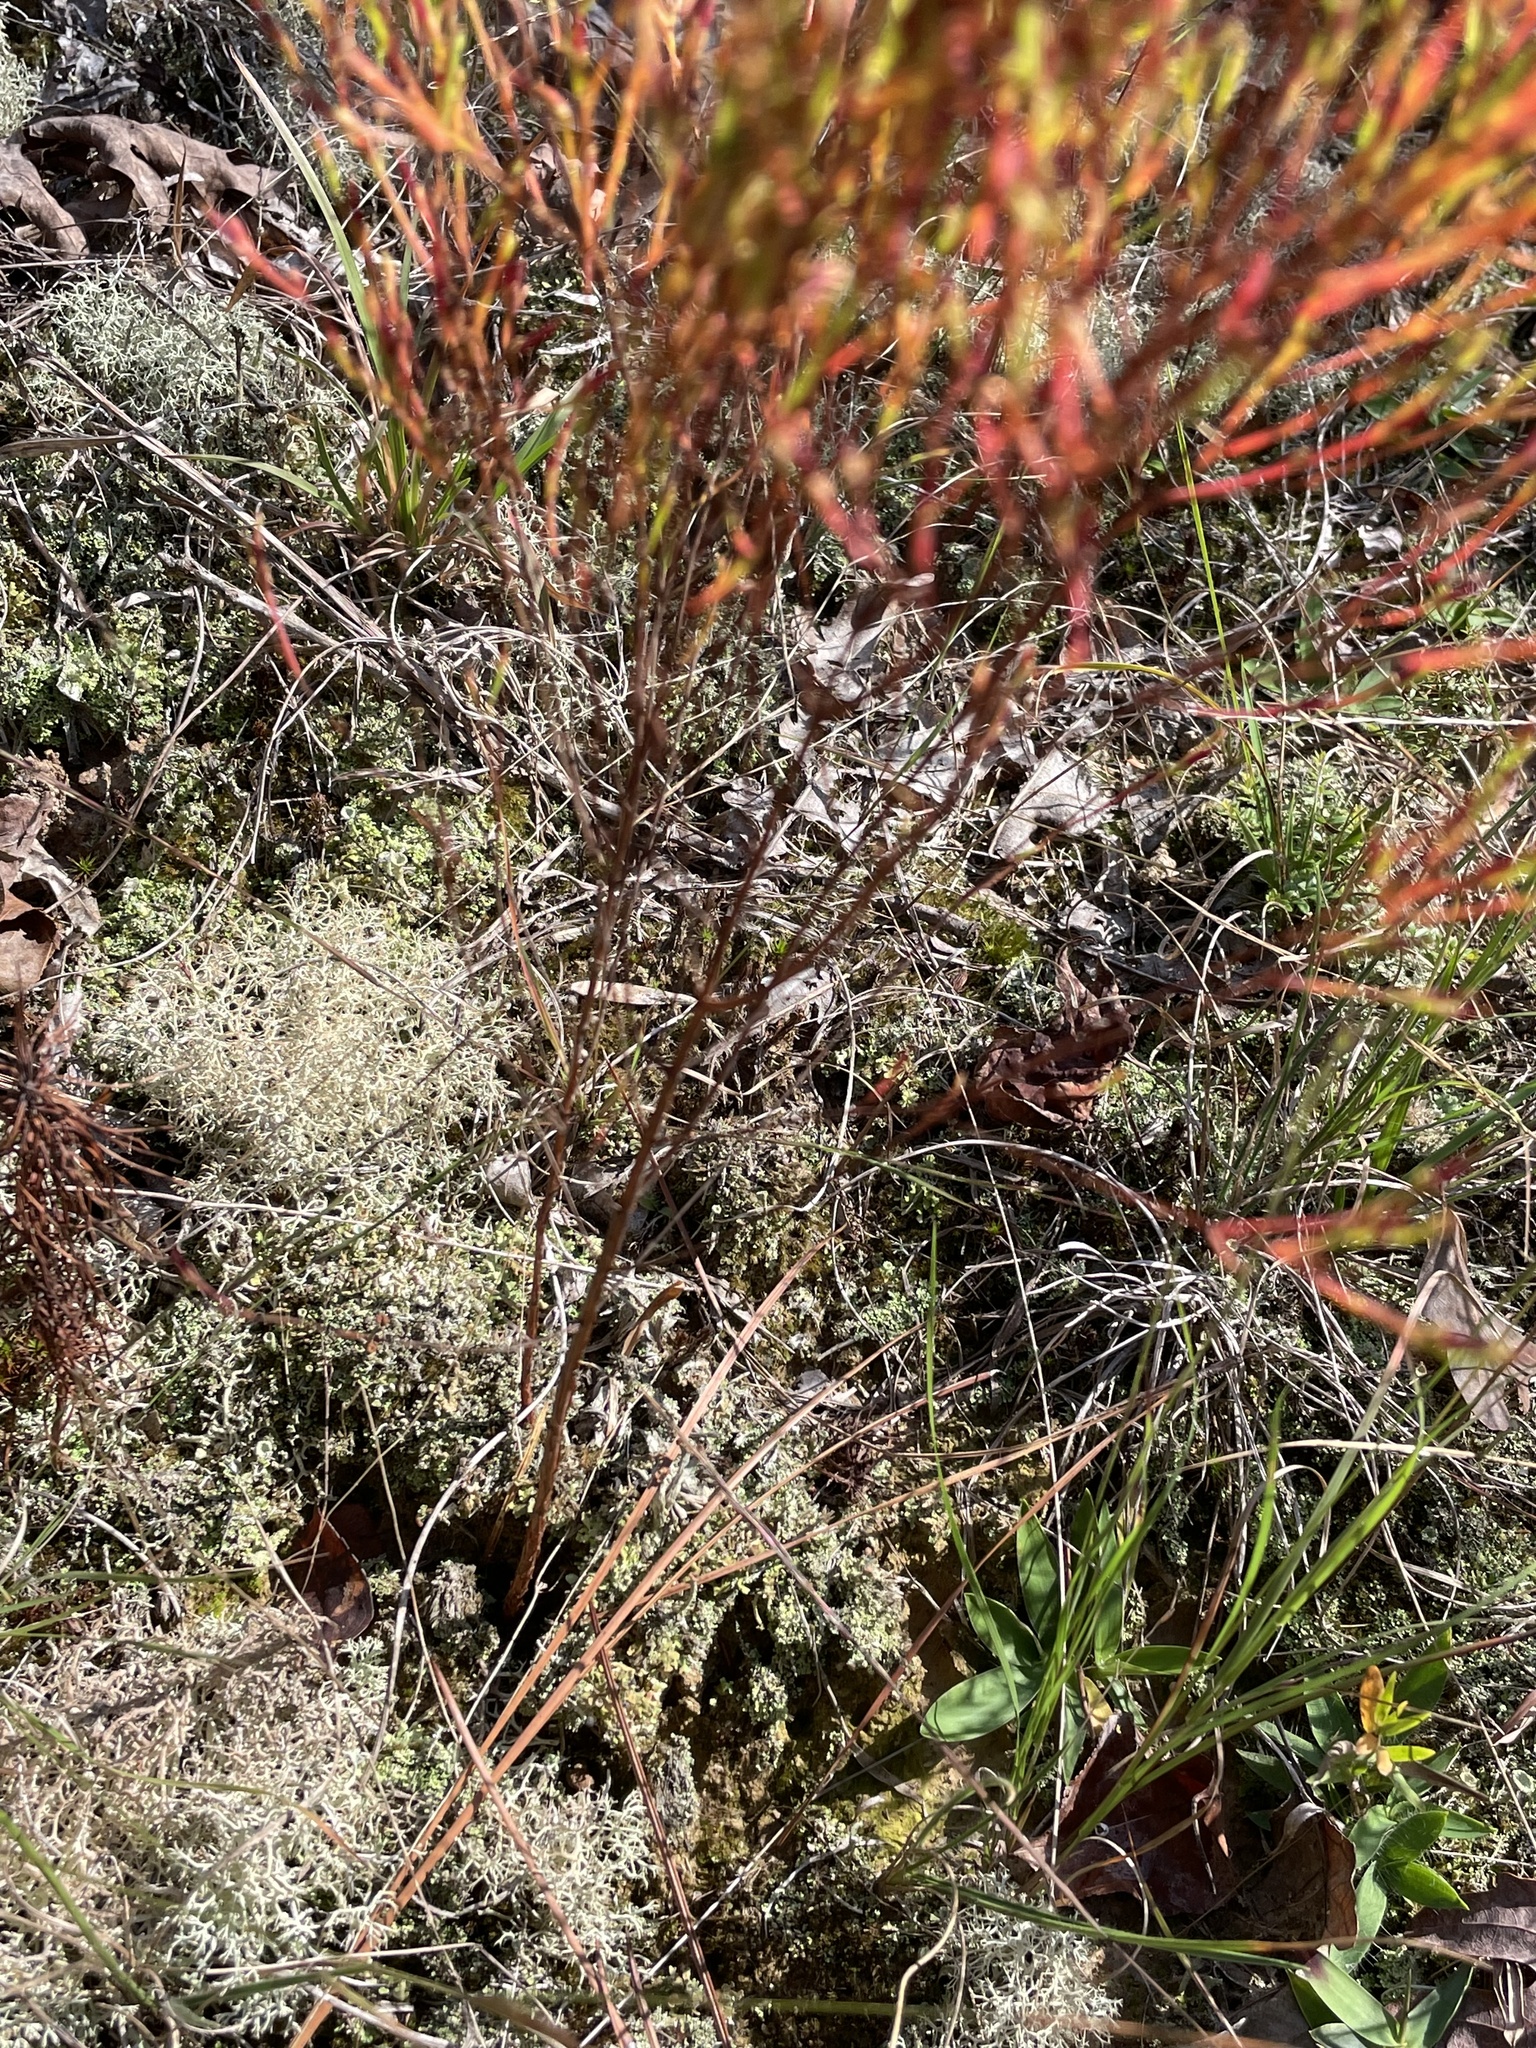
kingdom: Plantae
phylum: Tracheophyta
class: Magnoliopsida
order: Malpighiales
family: Hypericaceae
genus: Hypericum
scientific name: Hypericum gentianoides
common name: Gentian-leaved st. john's-wort
